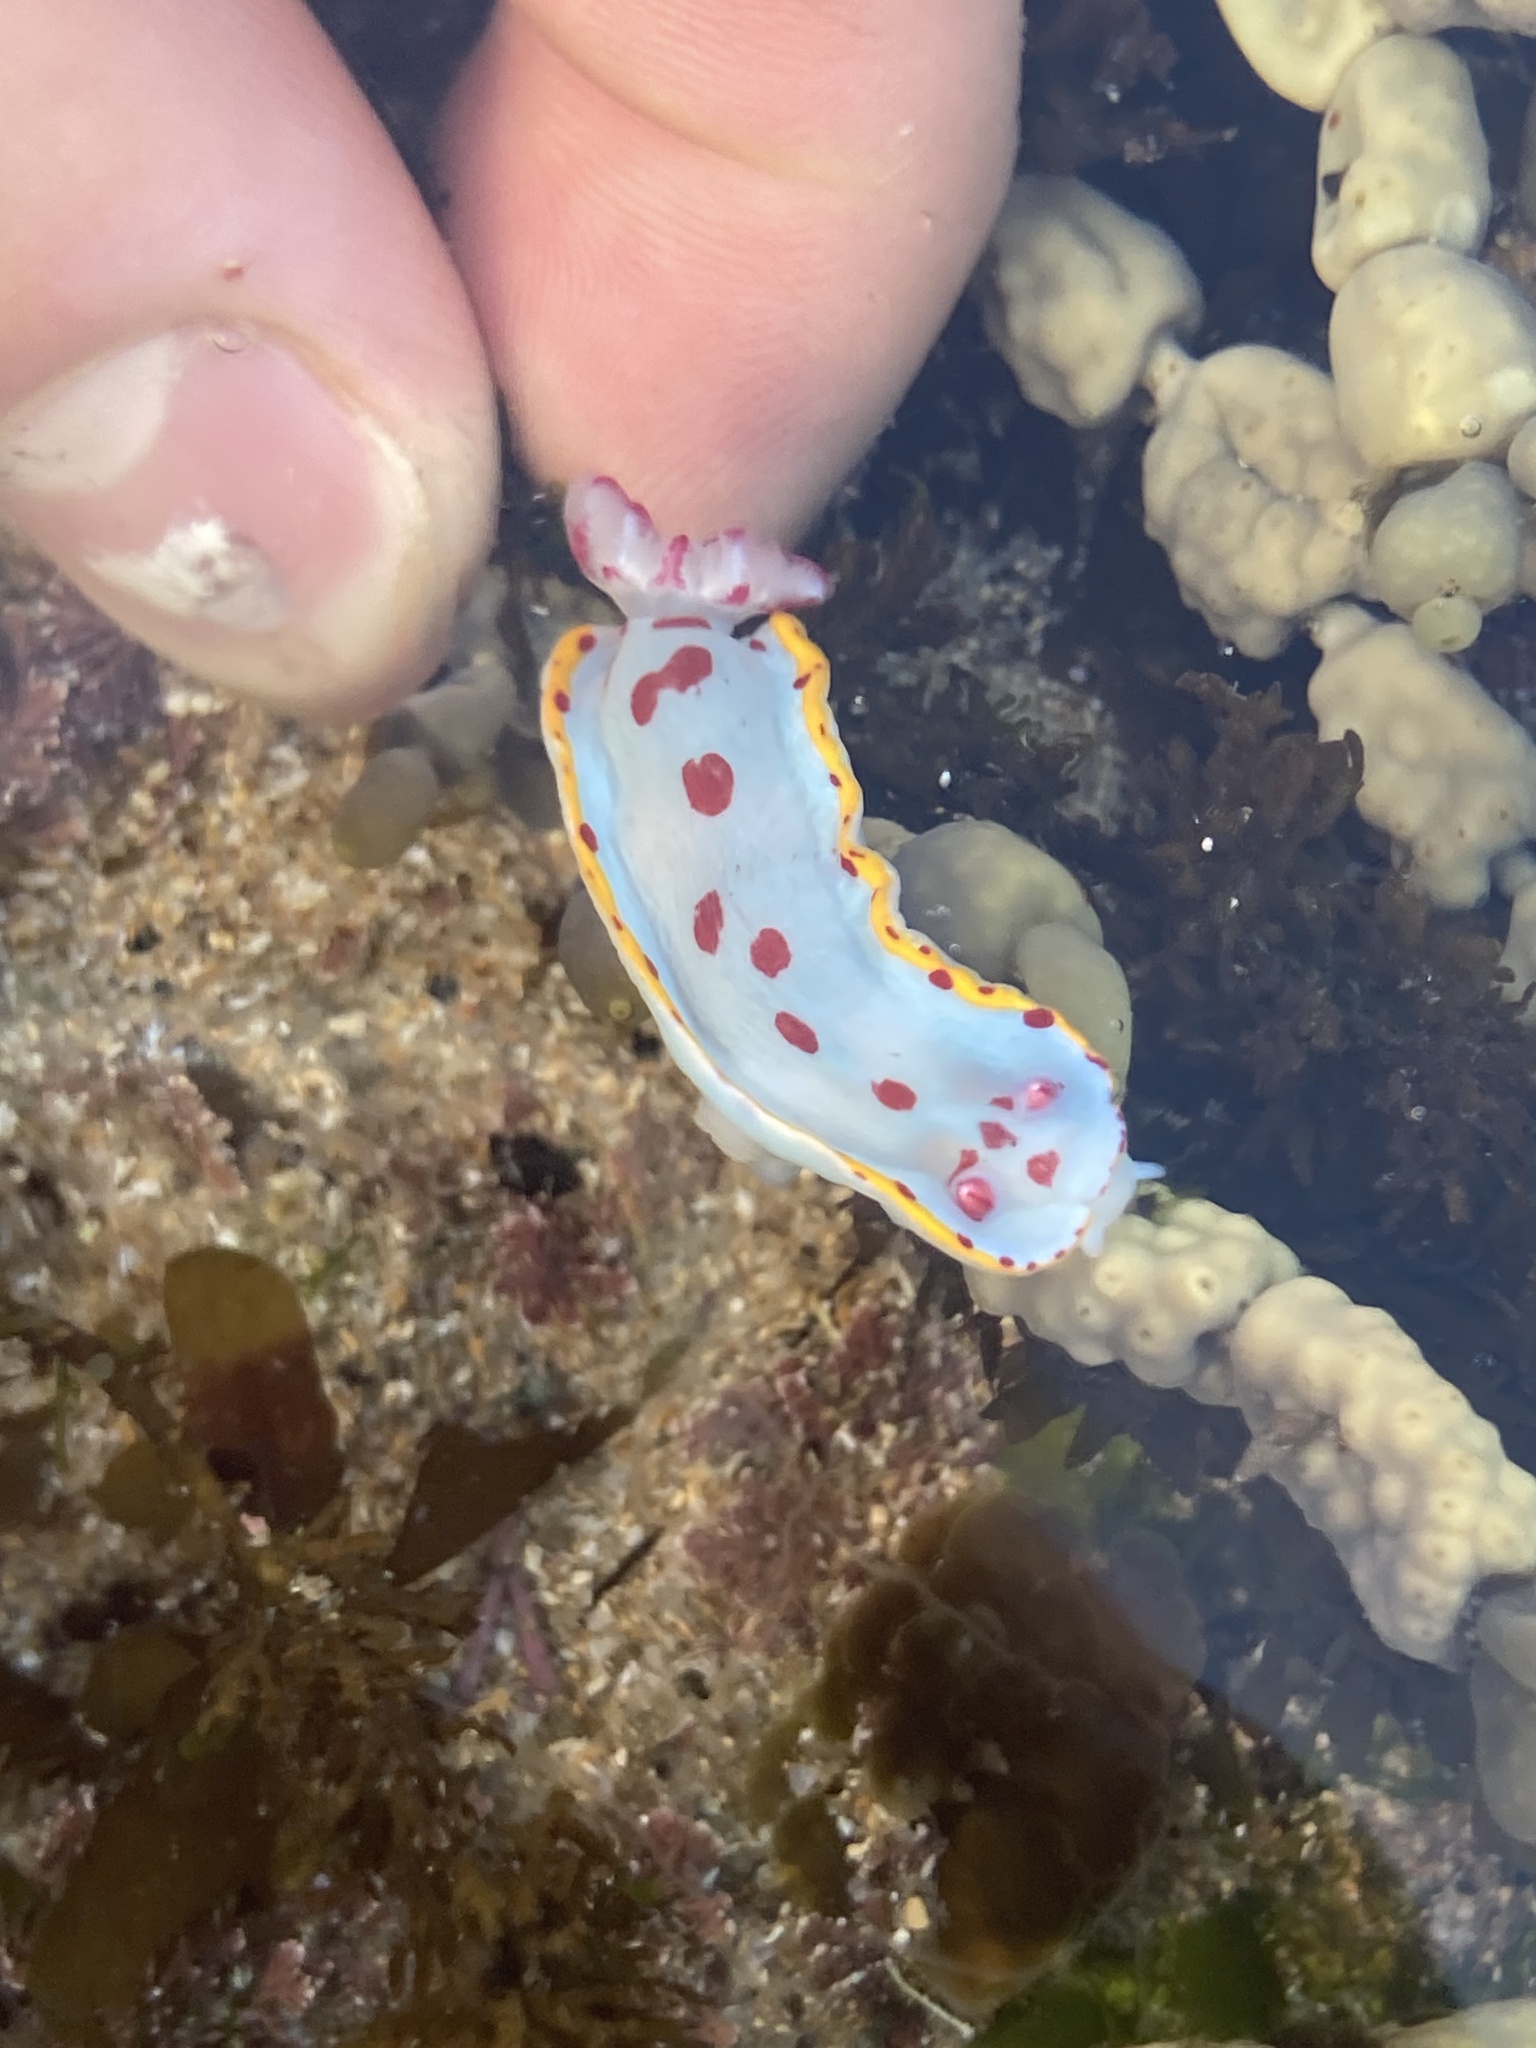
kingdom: Animalia
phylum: Mollusca
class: Gastropoda
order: Nudibranchia
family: Chromodorididae
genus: Hypselodoris
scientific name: Hypselodoris bennetti
